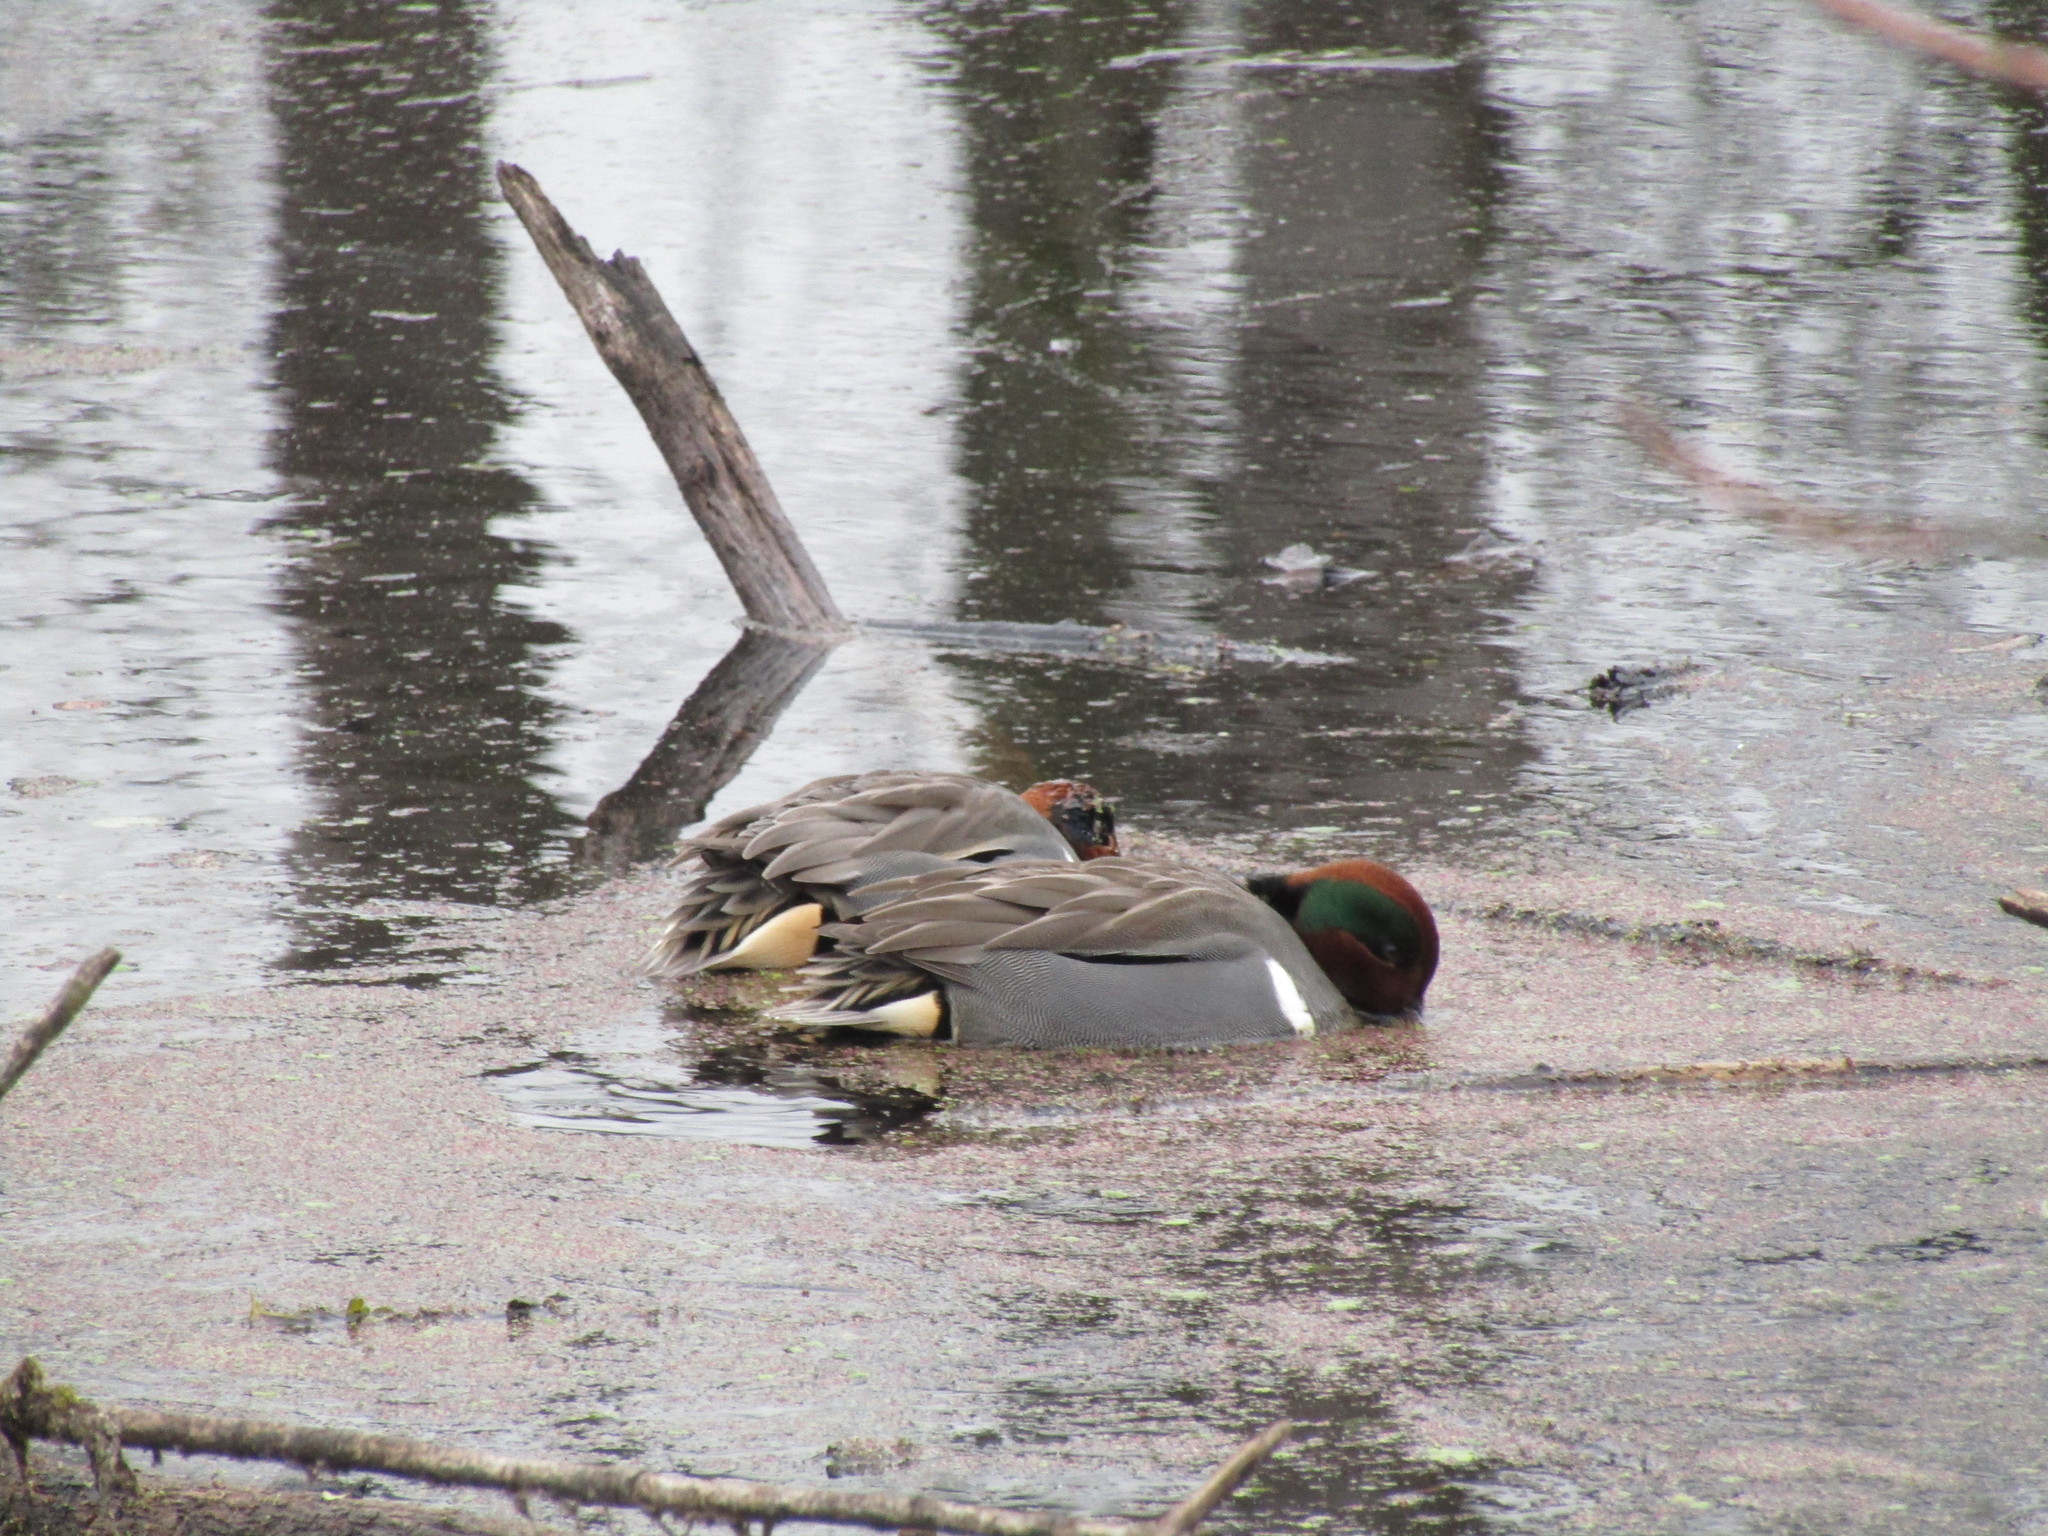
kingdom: Animalia
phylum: Chordata
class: Aves
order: Anseriformes
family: Anatidae
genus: Anas
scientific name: Anas crecca
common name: Eurasian teal
